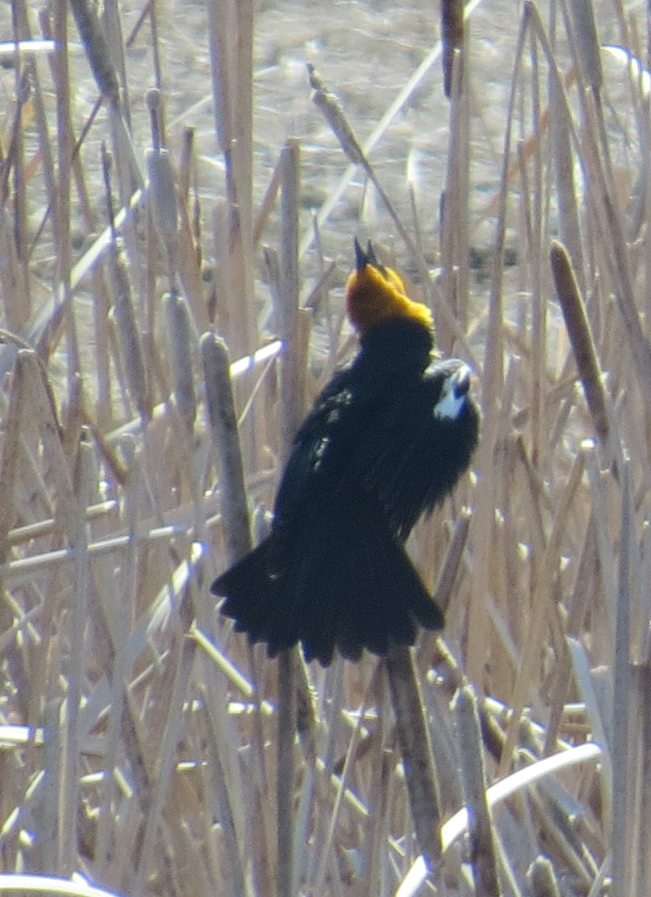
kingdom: Animalia
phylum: Chordata
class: Aves
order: Passeriformes
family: Icteridae
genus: Xanthocephalus
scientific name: Xanthocephalus xanthocephalus
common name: Yellow-headed blackbird
